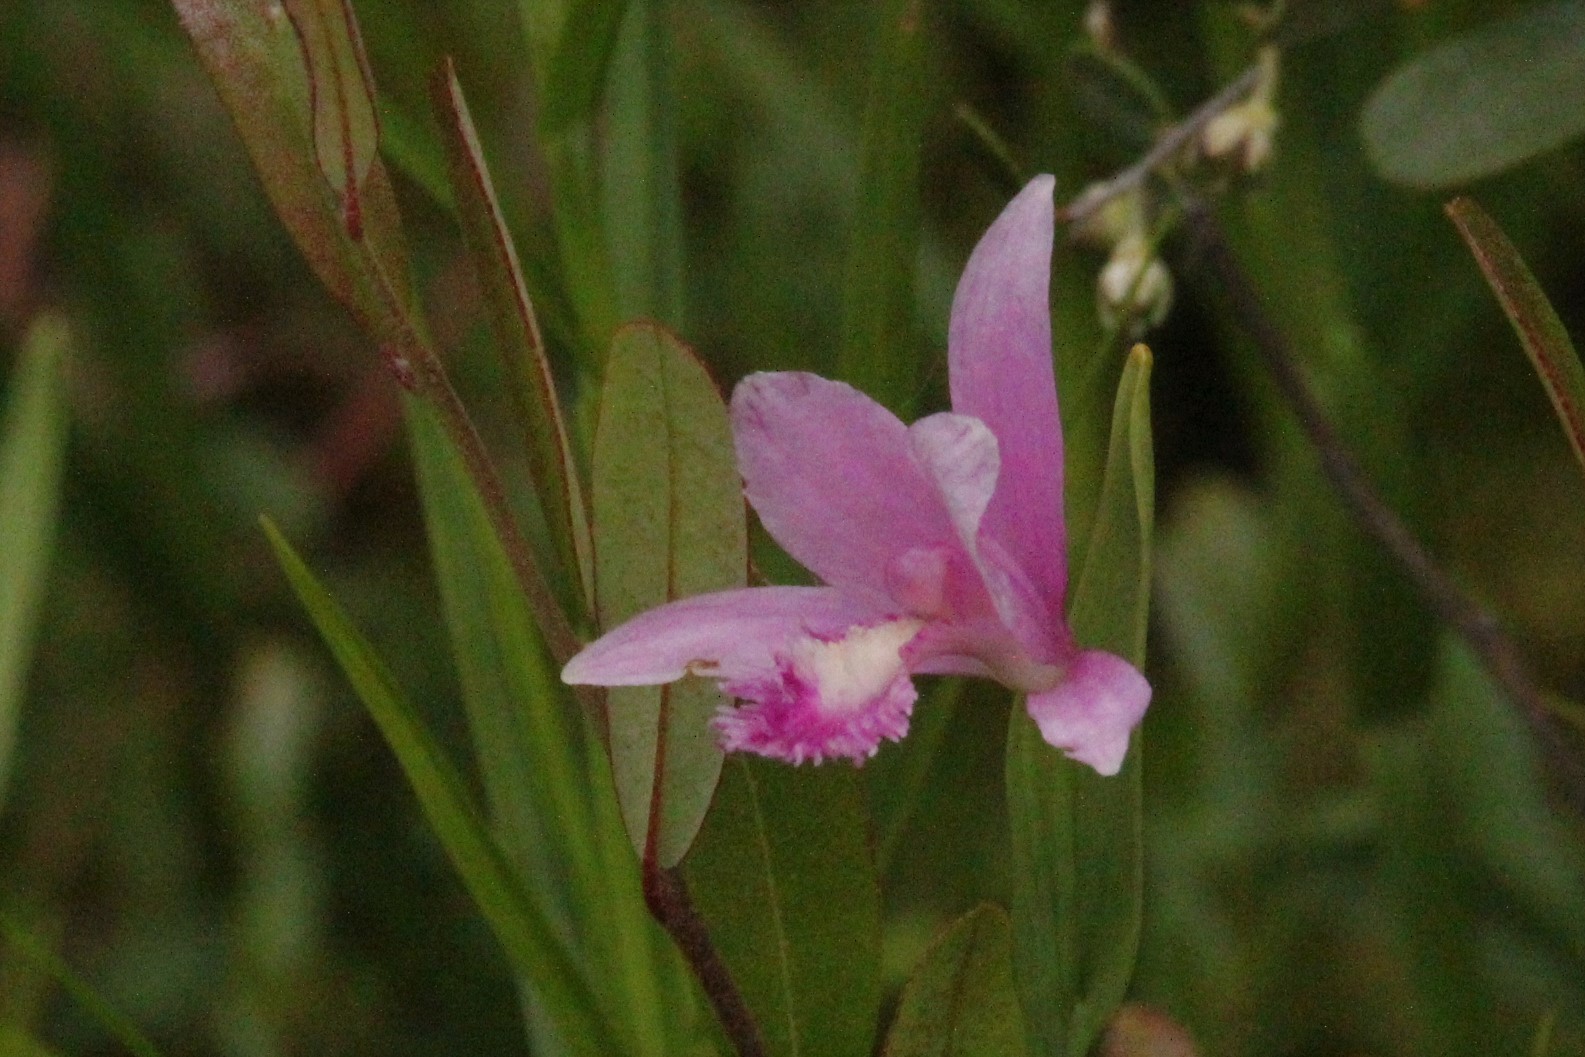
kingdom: Plantae
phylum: Tracheophyta
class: Liliopsida
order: Asparagales
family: Orchidaceae
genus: Pogonia
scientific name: Pogonia ophioglossoides
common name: Rose pogonia
